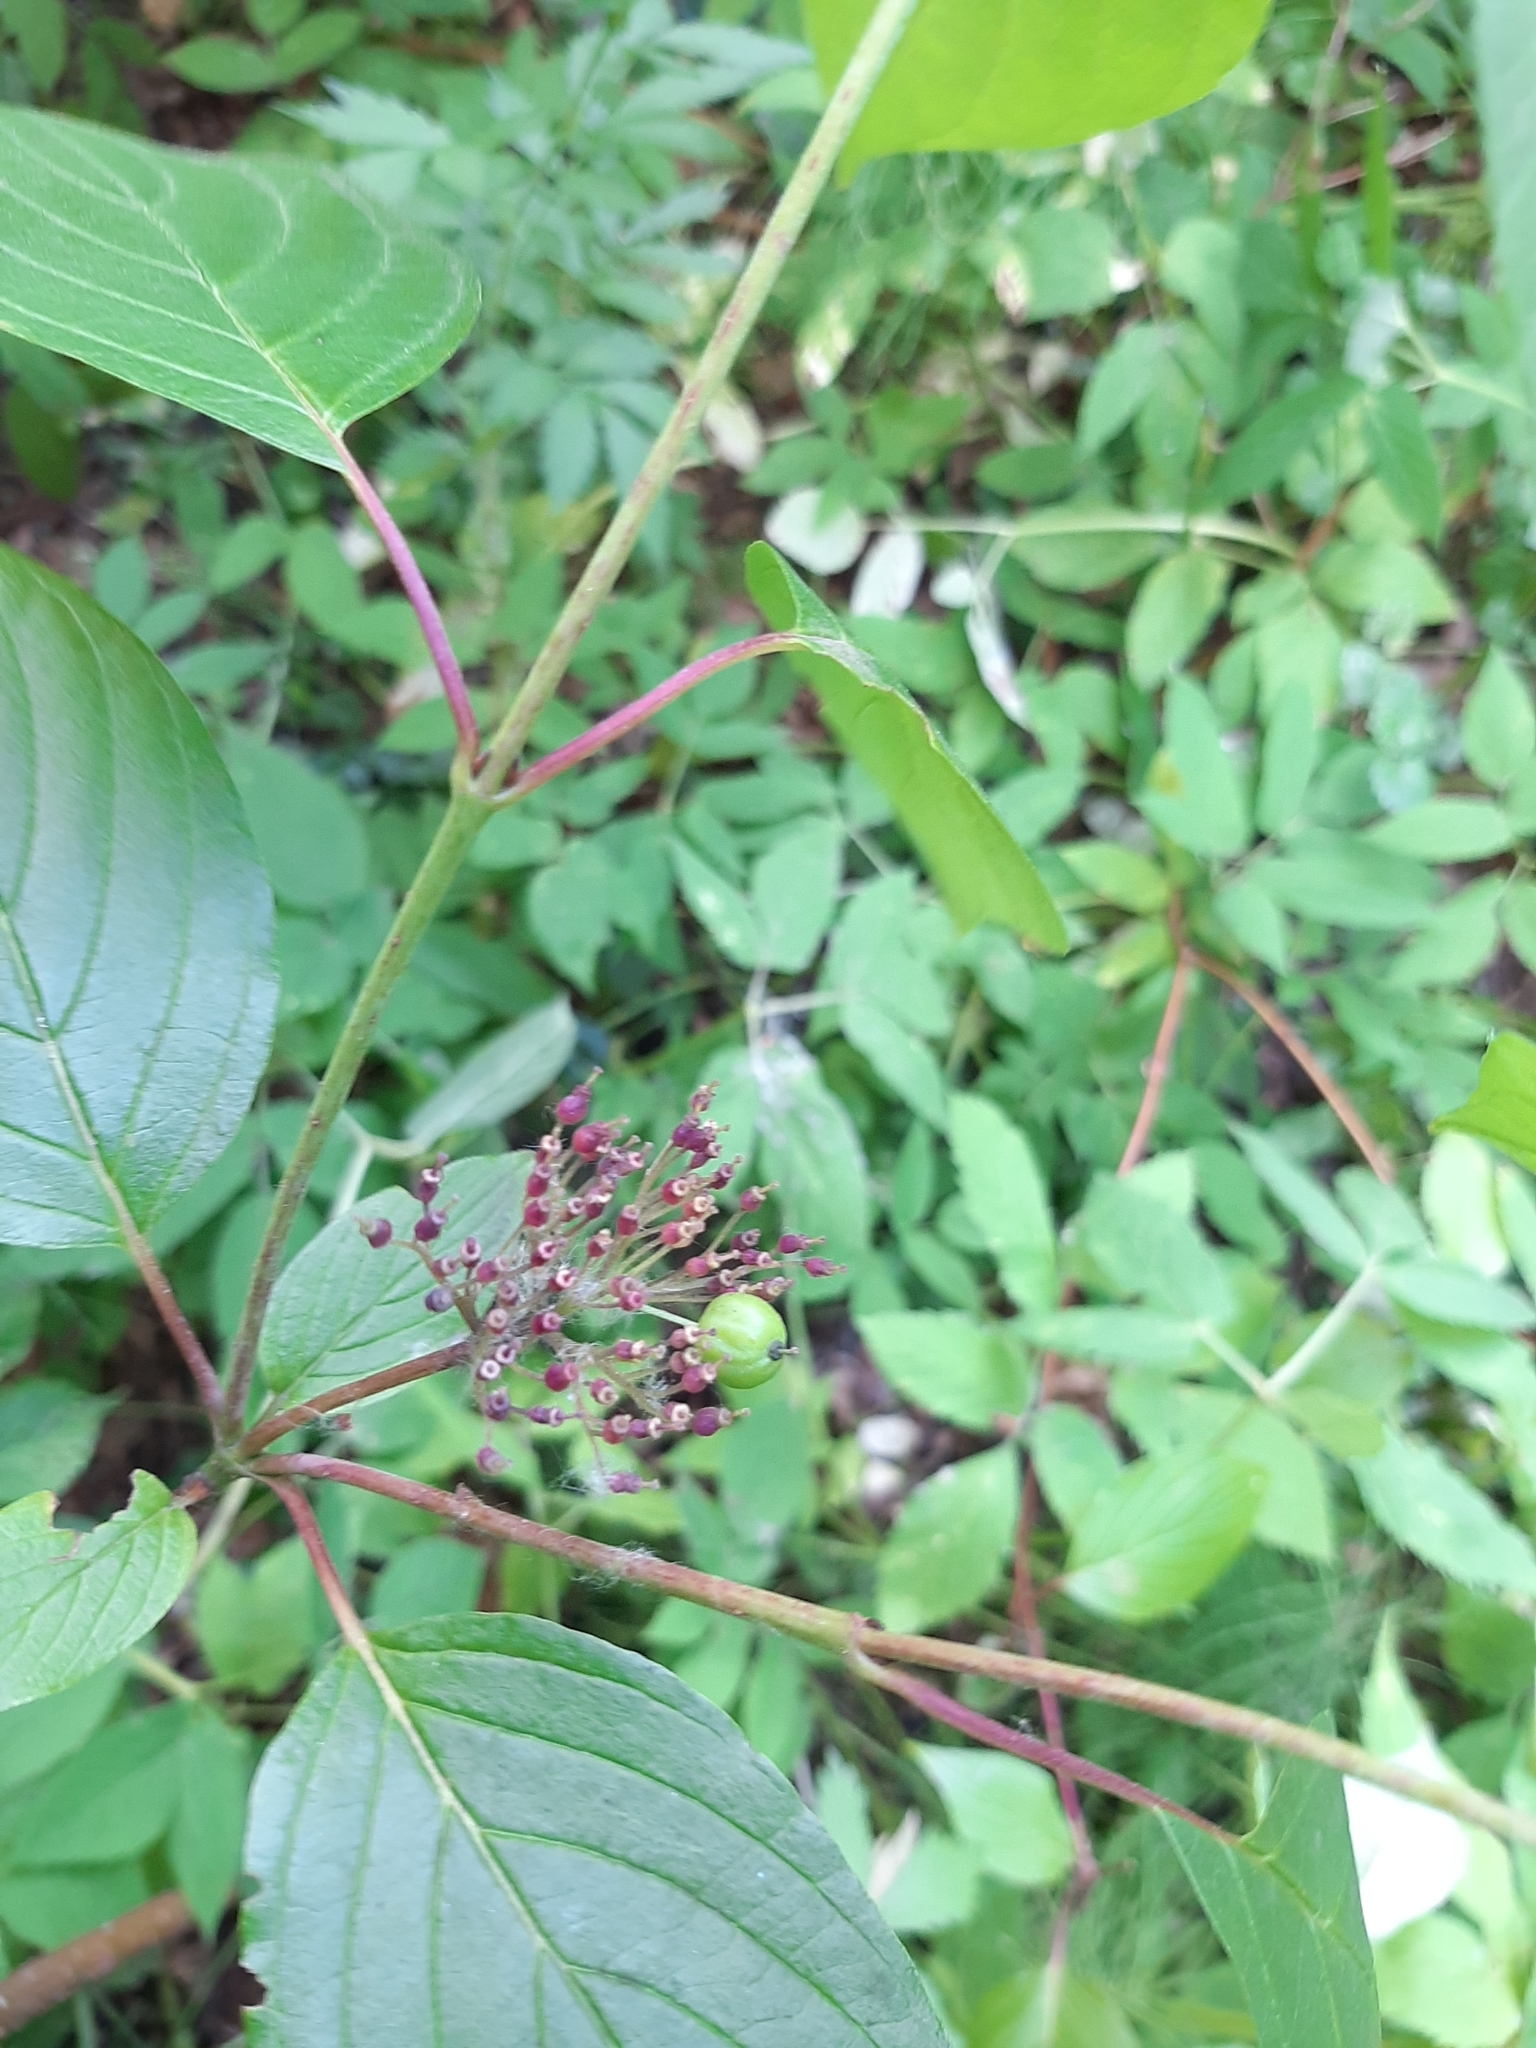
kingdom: Plantae
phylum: Tracheophyta
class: Magnoliopsida
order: Cornales
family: Cornaceae
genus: Cornus
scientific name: Cornus alba
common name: White dogwood
